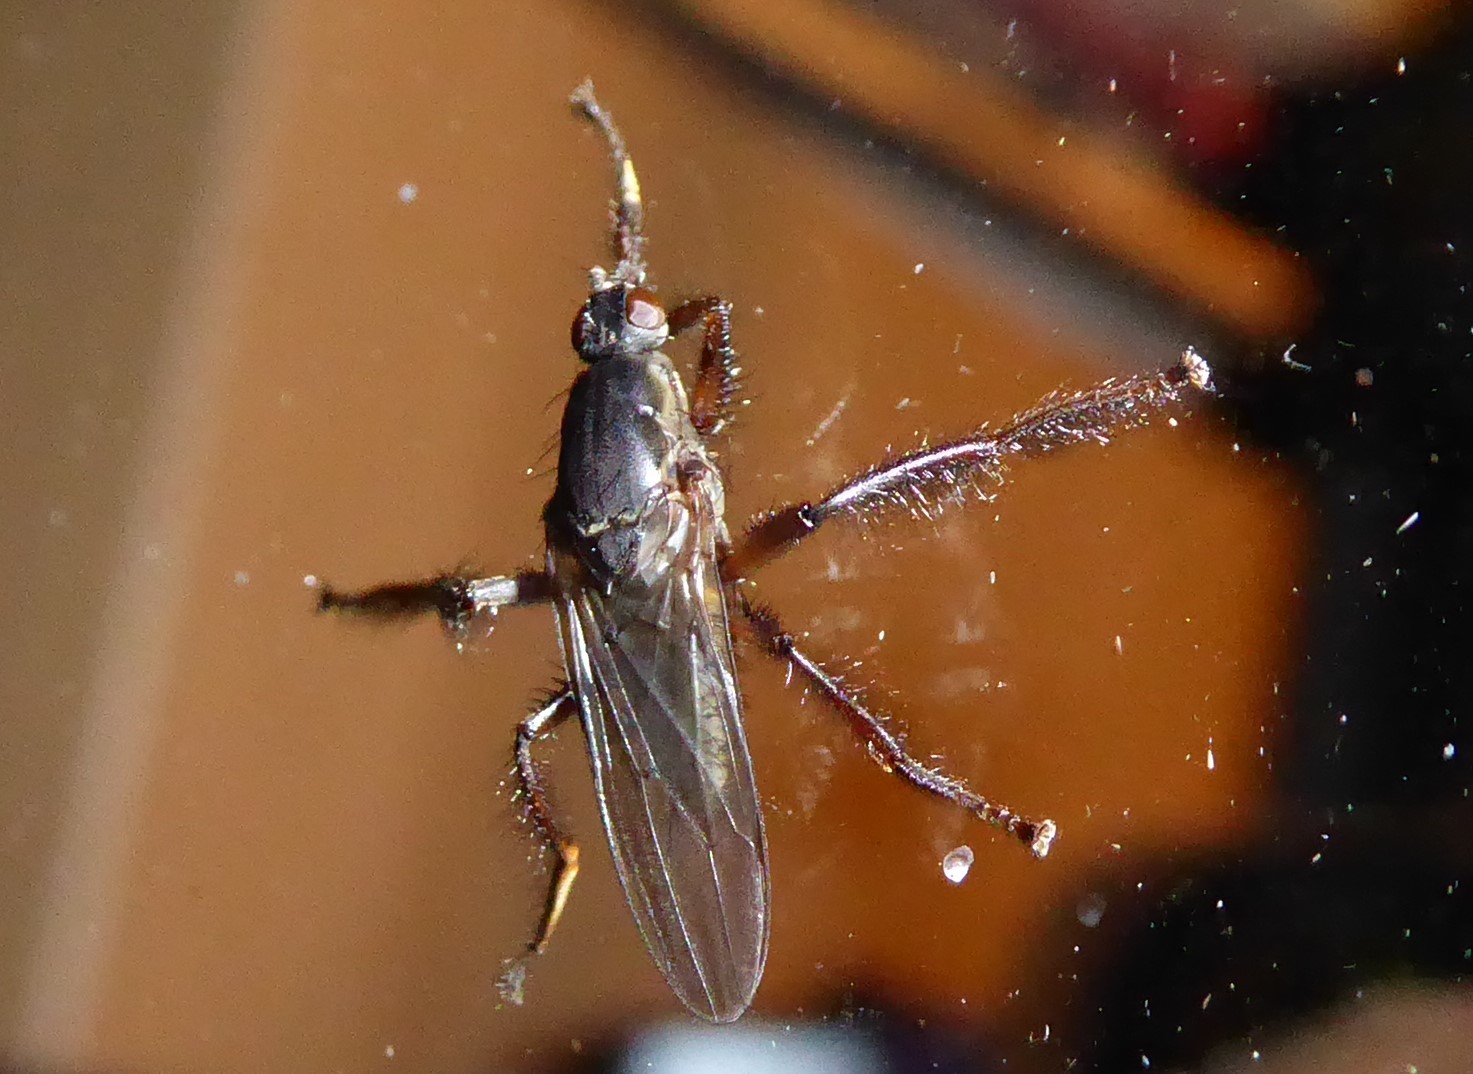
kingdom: Animalia
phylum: Arthropoda
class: Insecta
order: Diptera
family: Coelopidae
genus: Chaetocoelopa
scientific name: Chaetocoelopa littoralis
